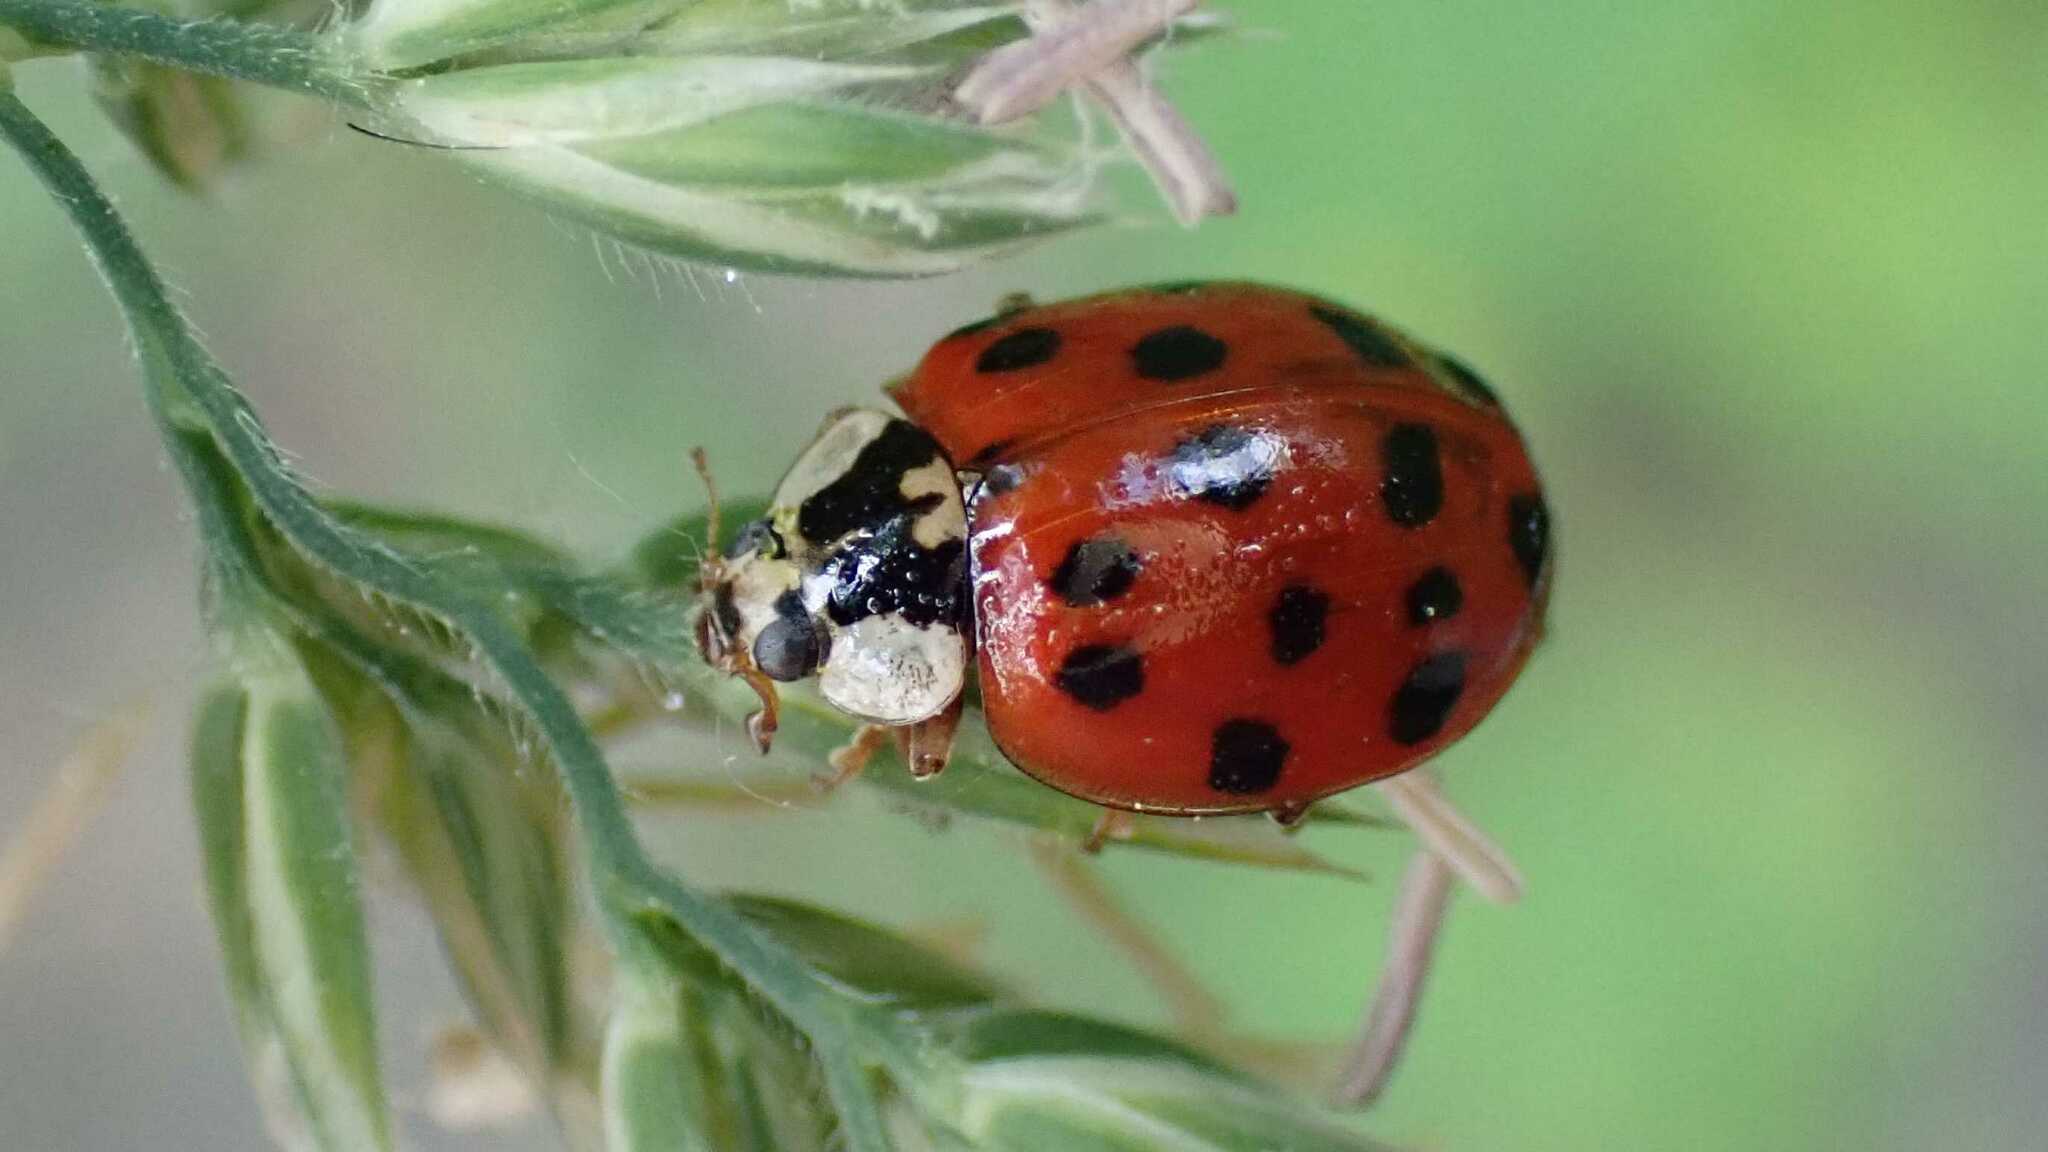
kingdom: Fungi
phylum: Ascomycota
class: Laboulbeniomycetes
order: Laboulbeniales
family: Laboulbeniaceae
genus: Hesperomyces
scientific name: Hesperomyces harmoniae
